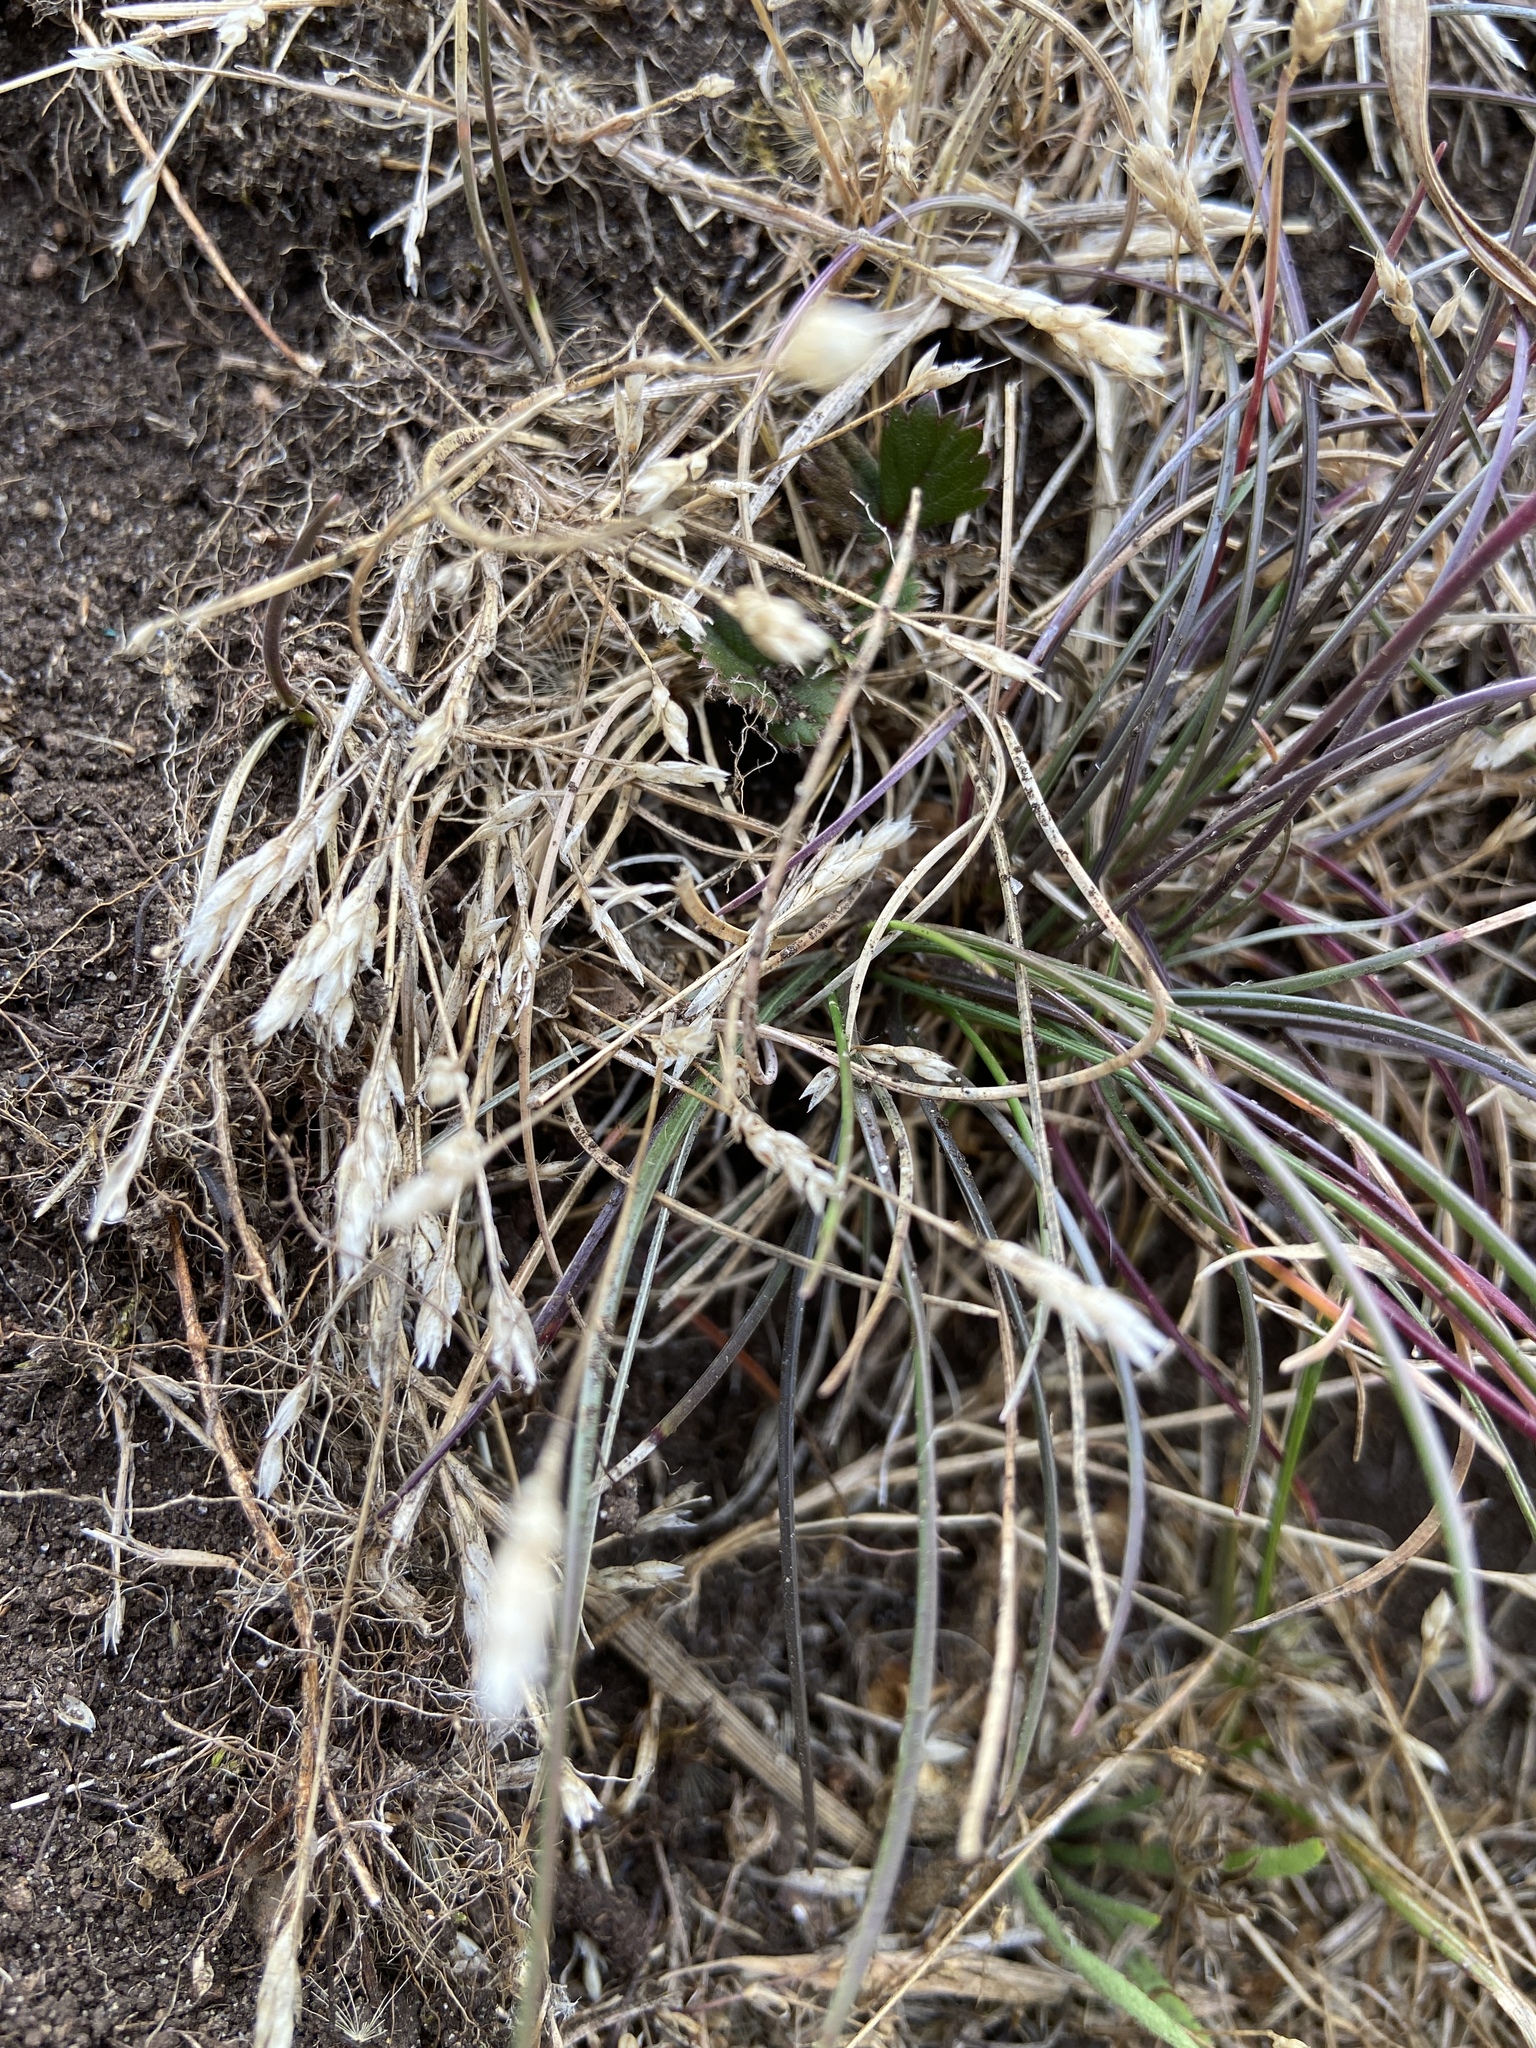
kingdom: Plantae
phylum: Tracheophyta
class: Liliopsida
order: Poales
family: Poaceae
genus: Aira
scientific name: Aira praecox
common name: Early hair-grass
